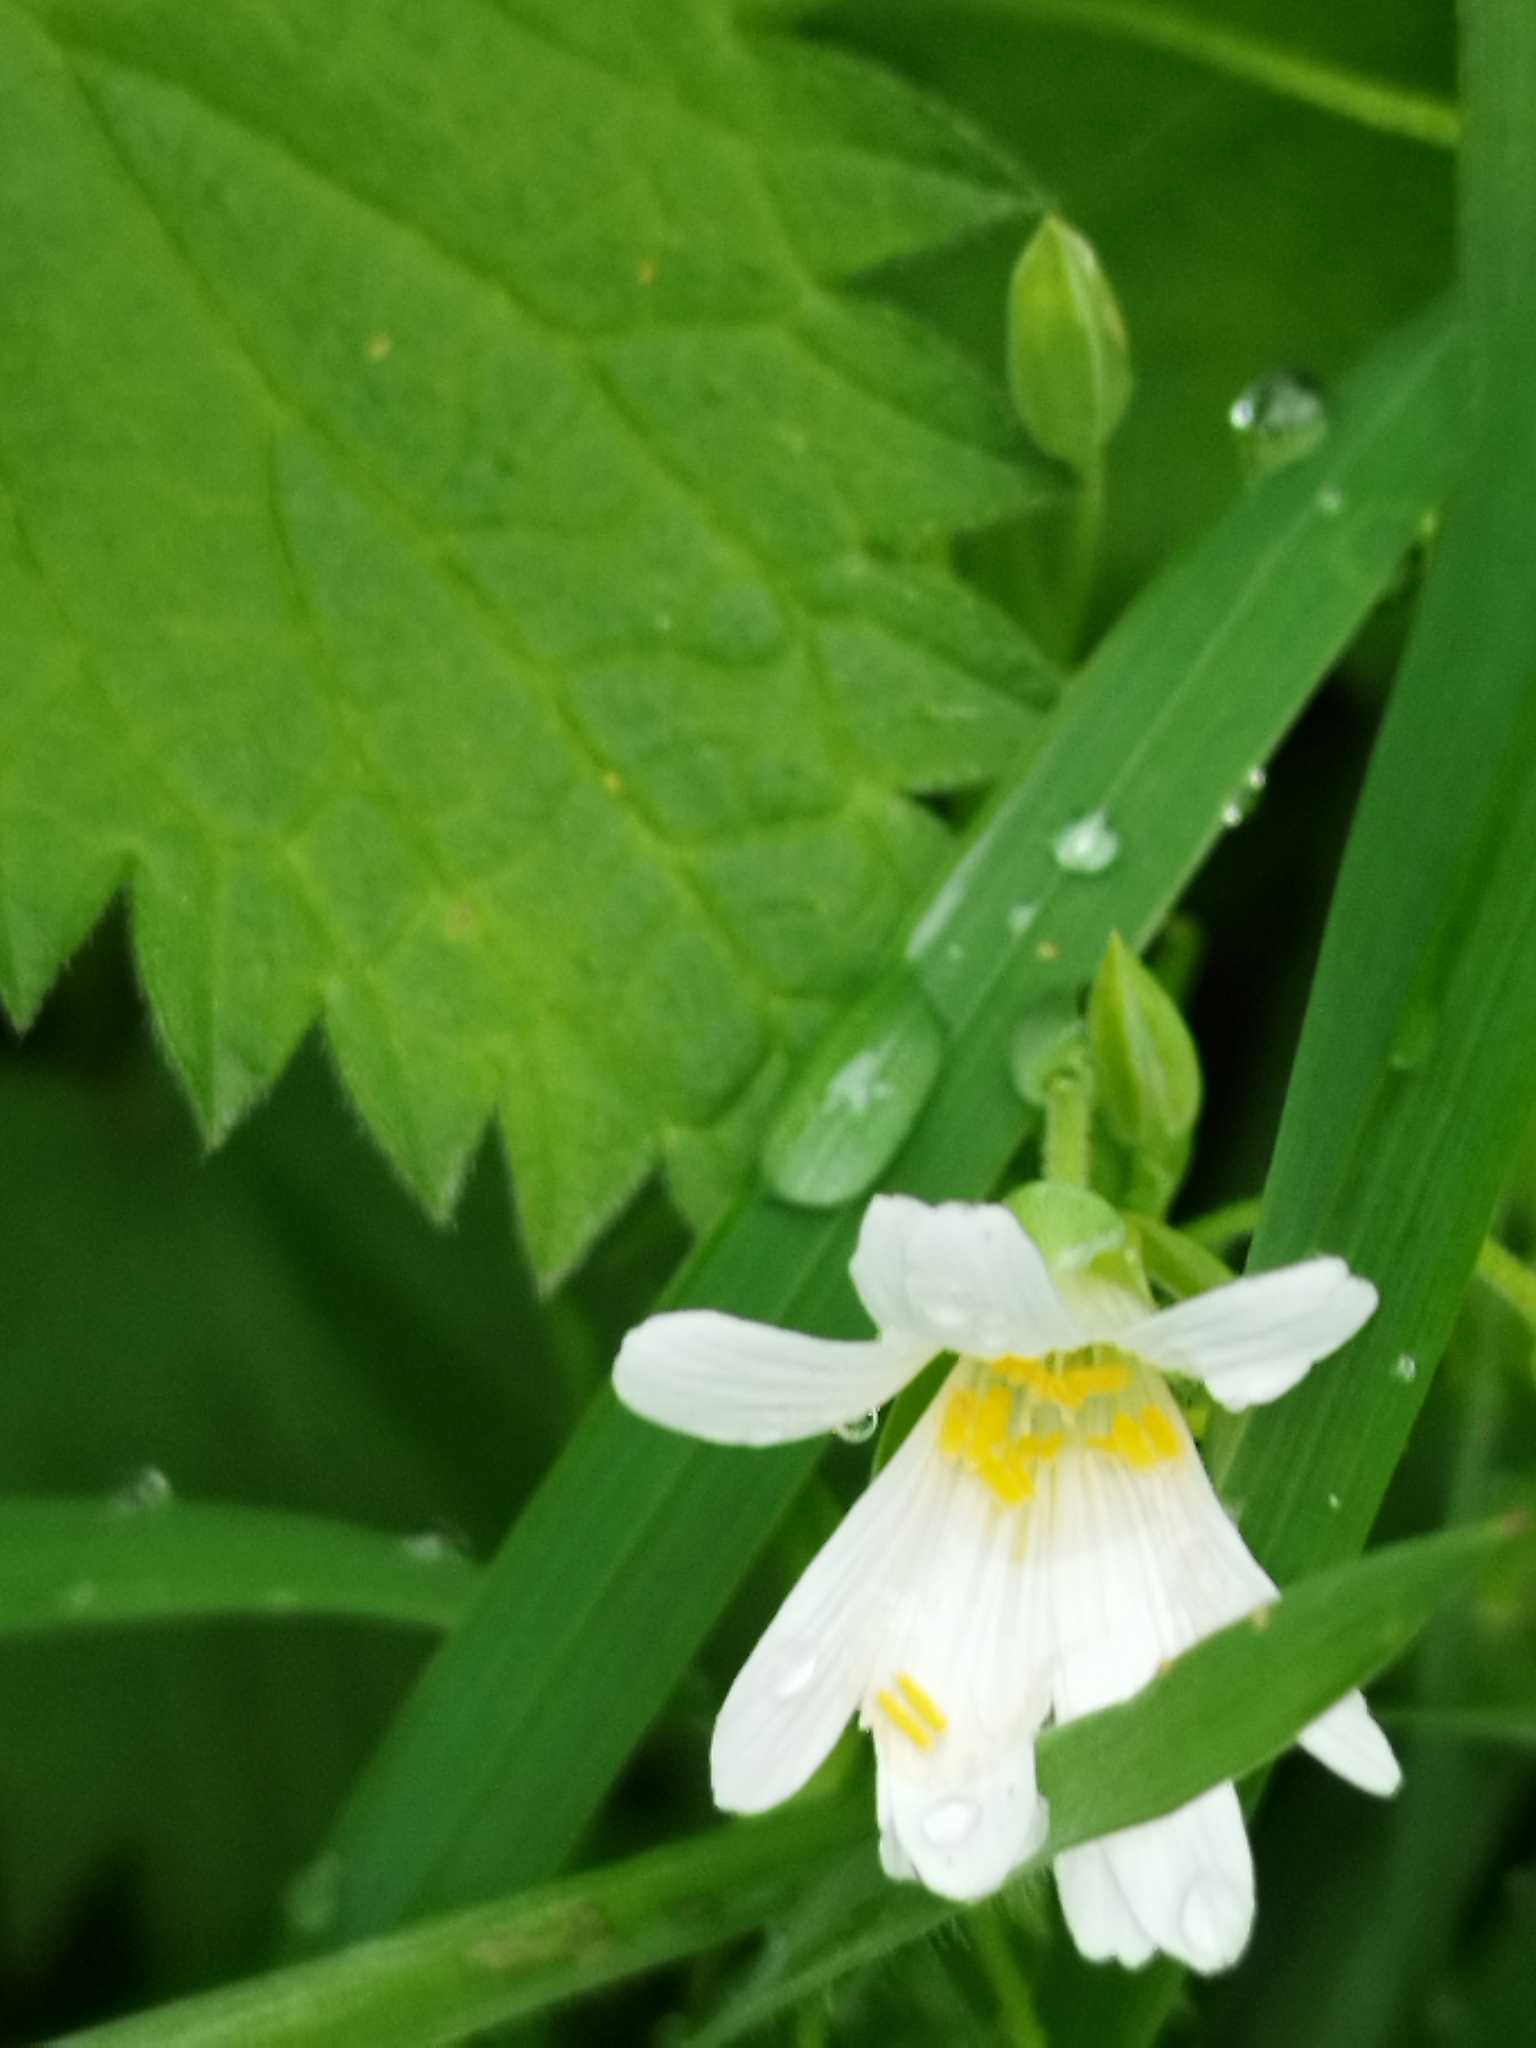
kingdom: Plantae
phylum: Tracheophyta
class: Magnoliopsida
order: Caryophyllales
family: Caryophyllaceae
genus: Rabelera
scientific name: Rabelera holostea
